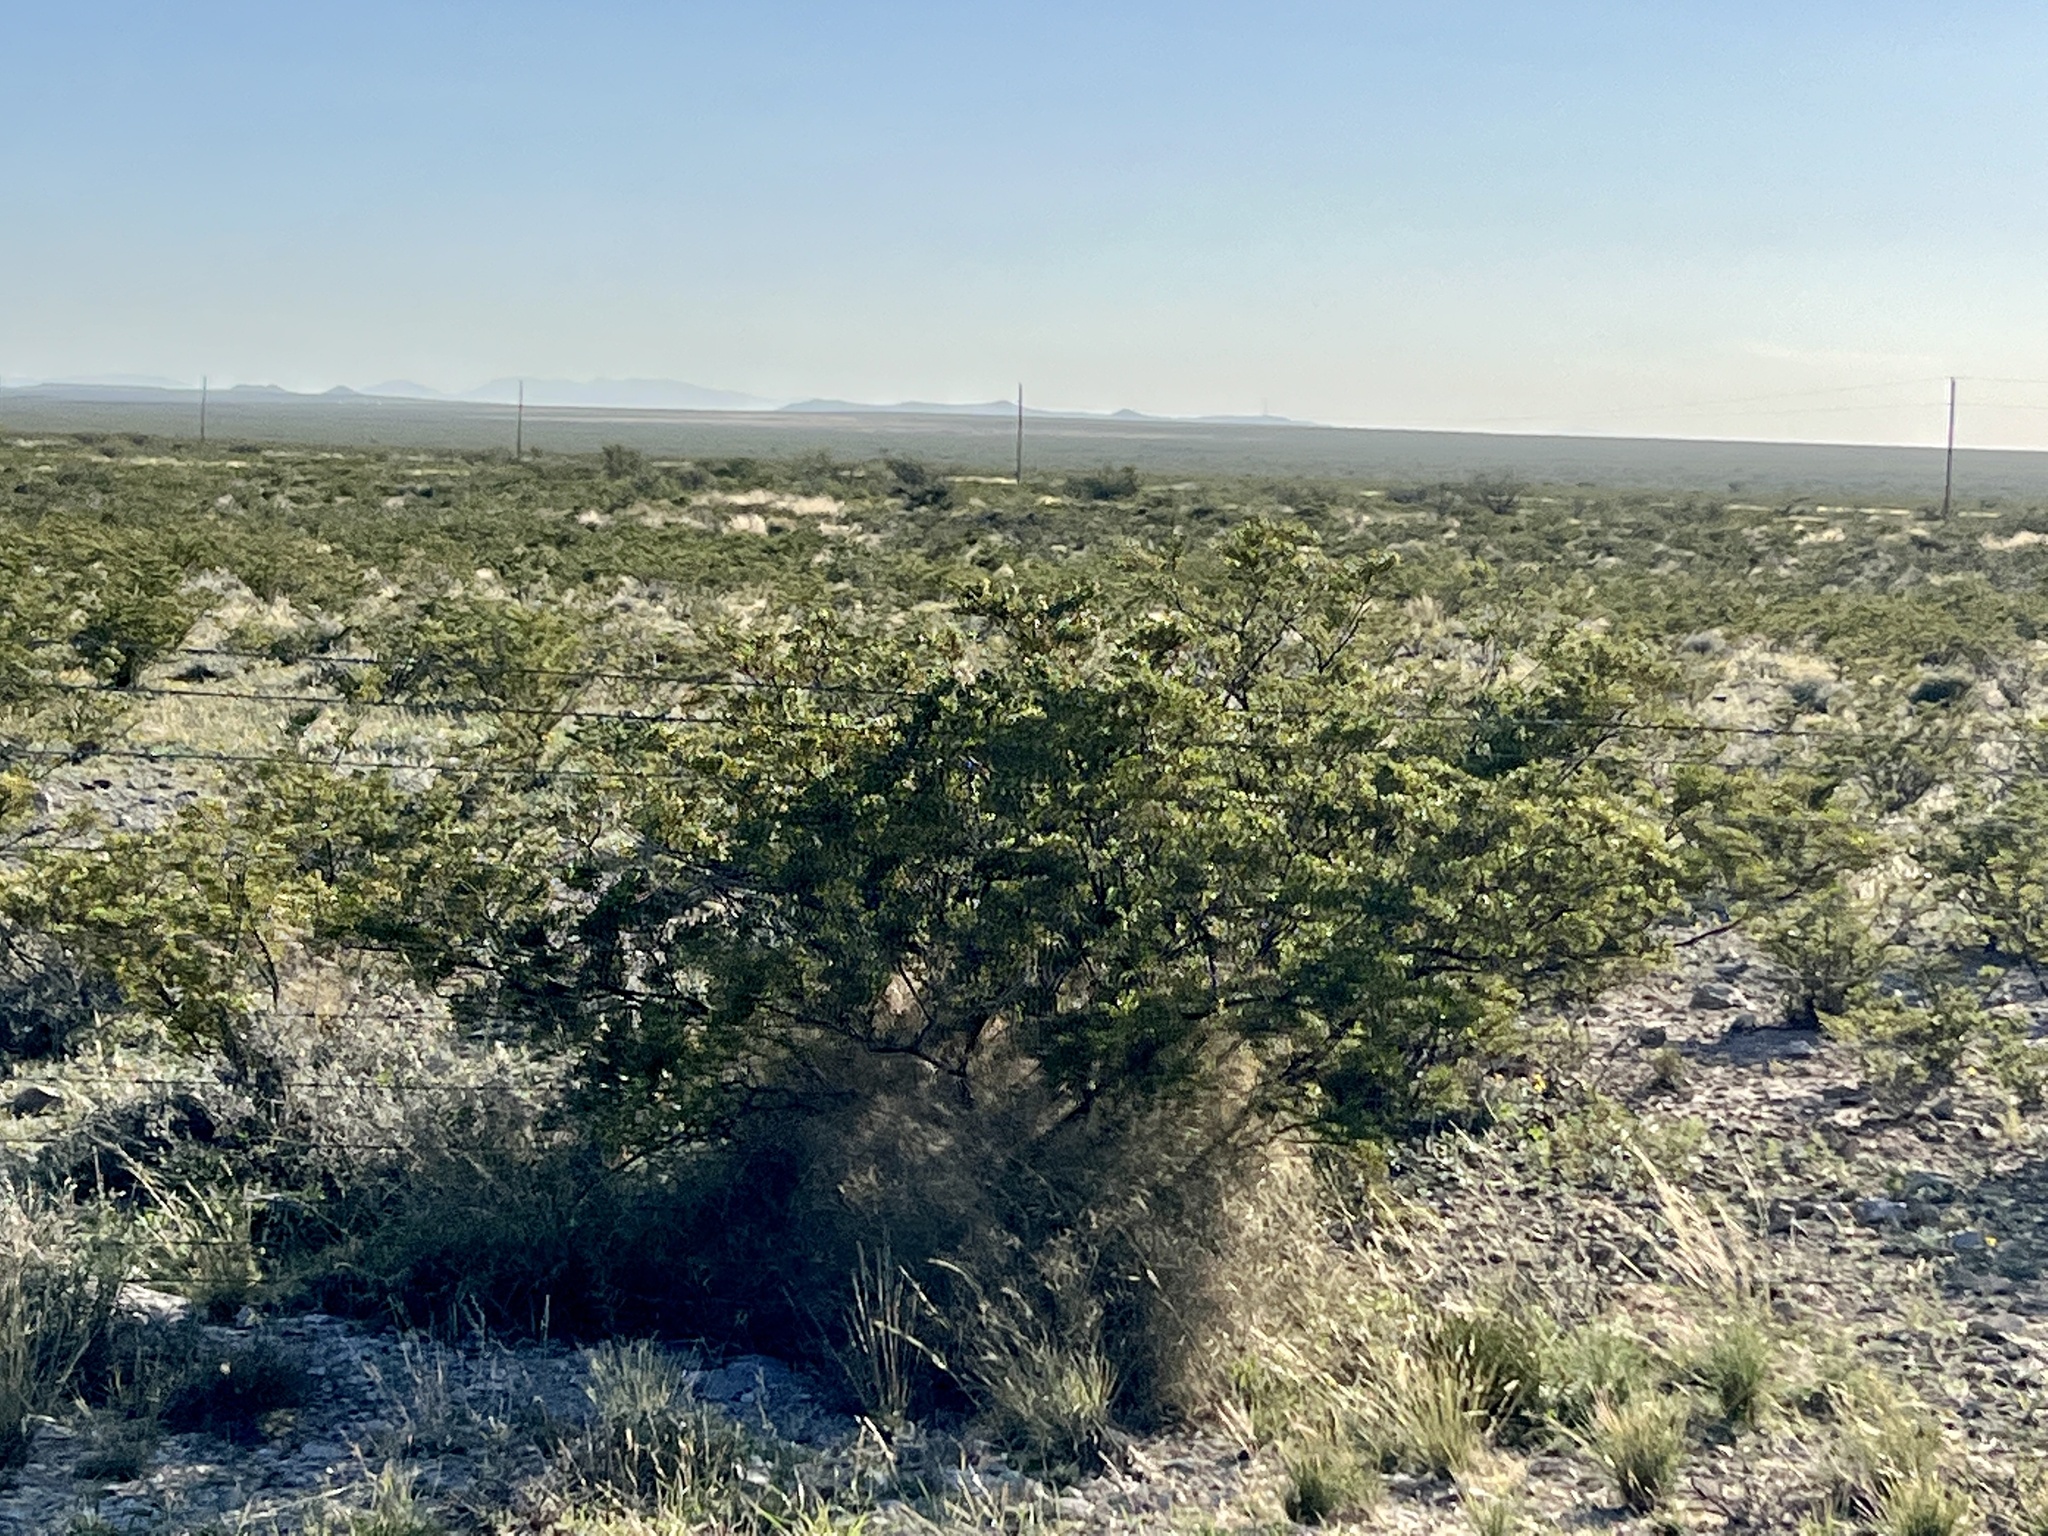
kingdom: Plantae
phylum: Tracheophyta
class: Magnoliopsida
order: Zygophyllales
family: Zygophyllaceae
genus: Larrea
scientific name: Larrea tridentata
